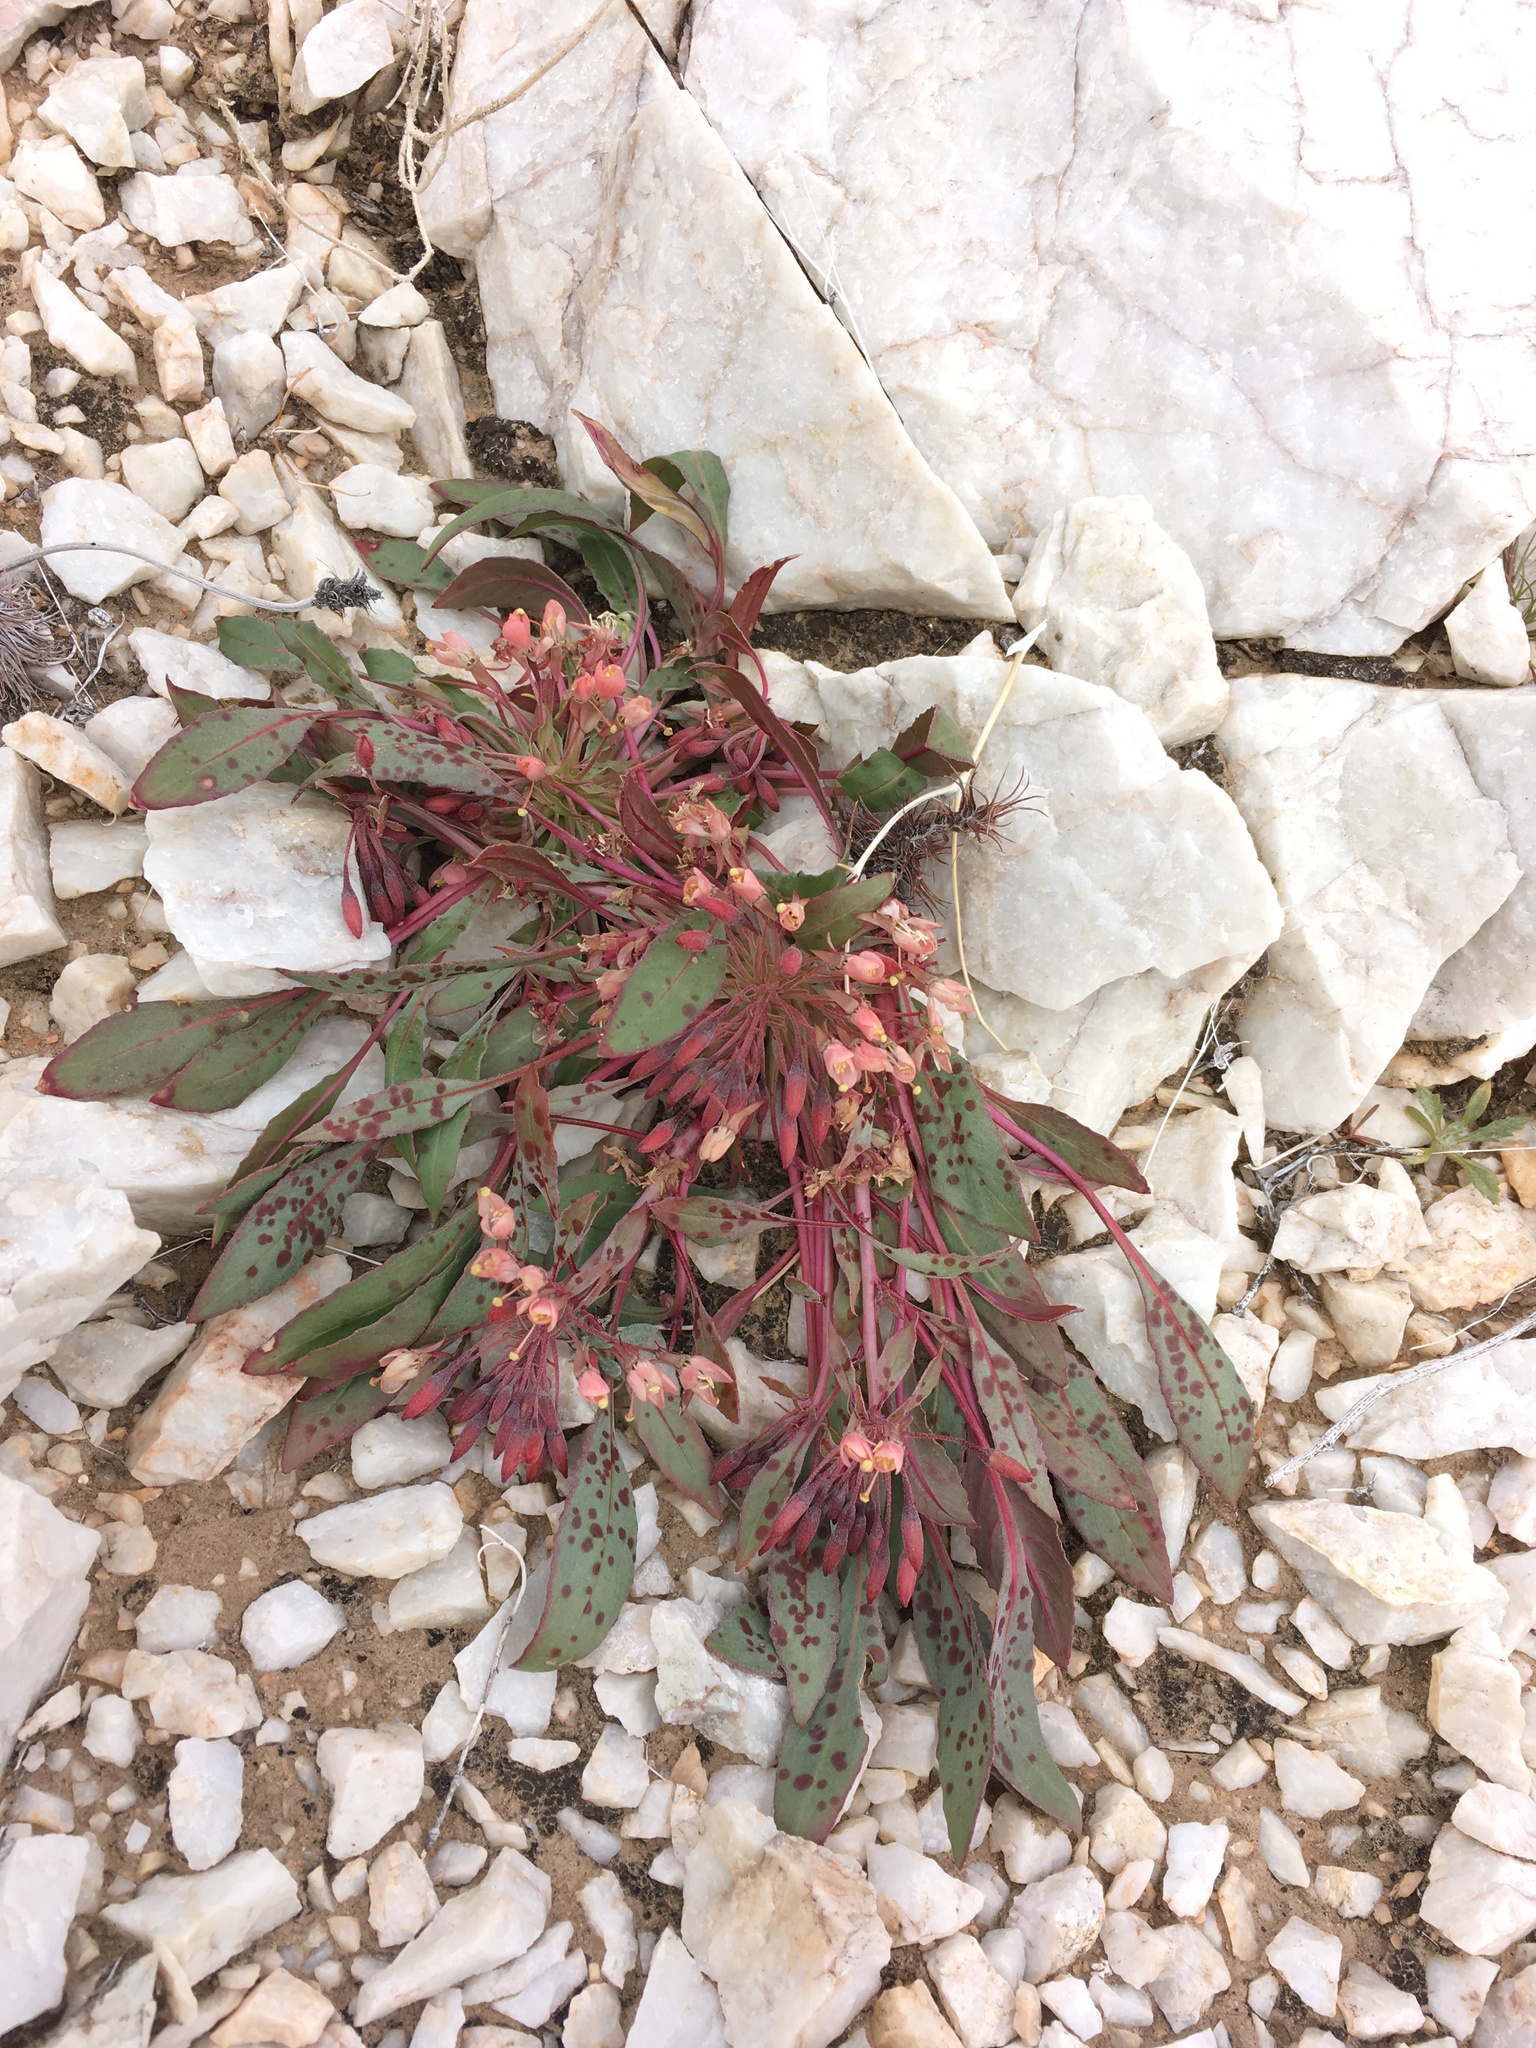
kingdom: Plantae
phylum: Tracheophyta
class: Magnoliopsida
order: Myrtales
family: Onagraceae
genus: Eremothera
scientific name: Eremothera boothii
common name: Booth's evening primrose
